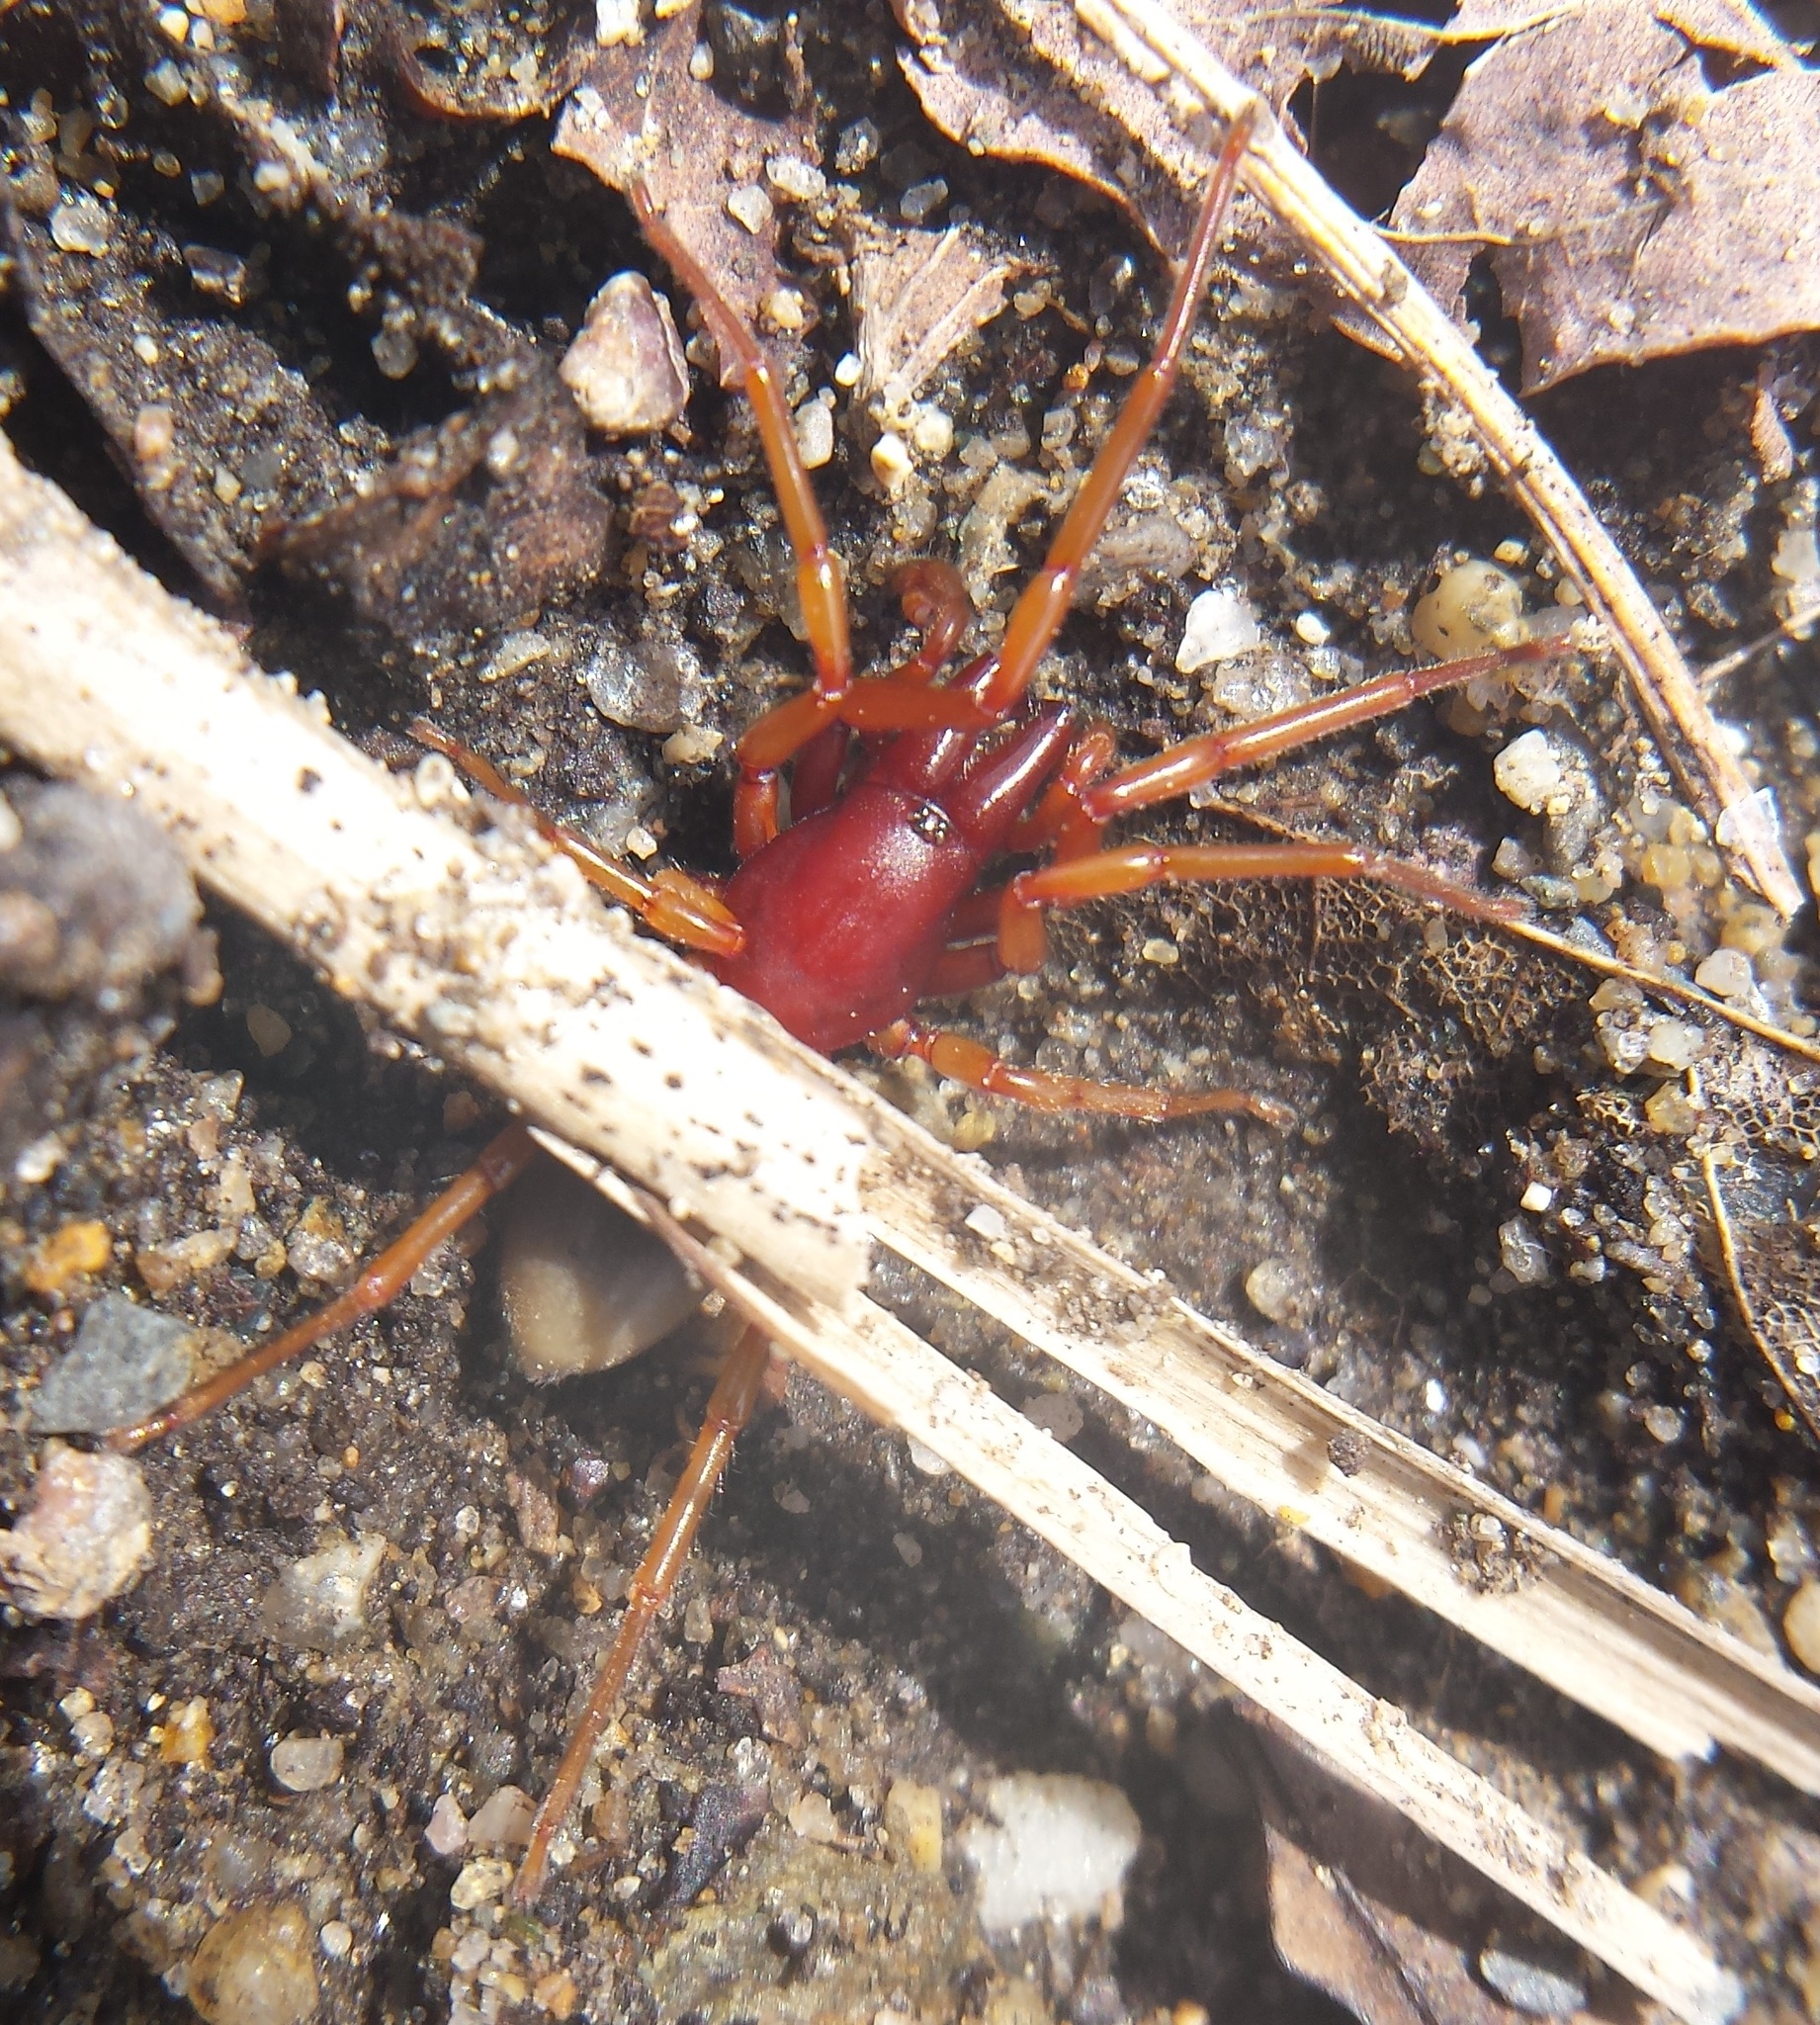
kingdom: Animalia
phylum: Arthropoda
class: Arachnida
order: Araneae
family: Dysderidae
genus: Dysdera
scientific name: Dysdera crocata
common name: Woodlouse spider
